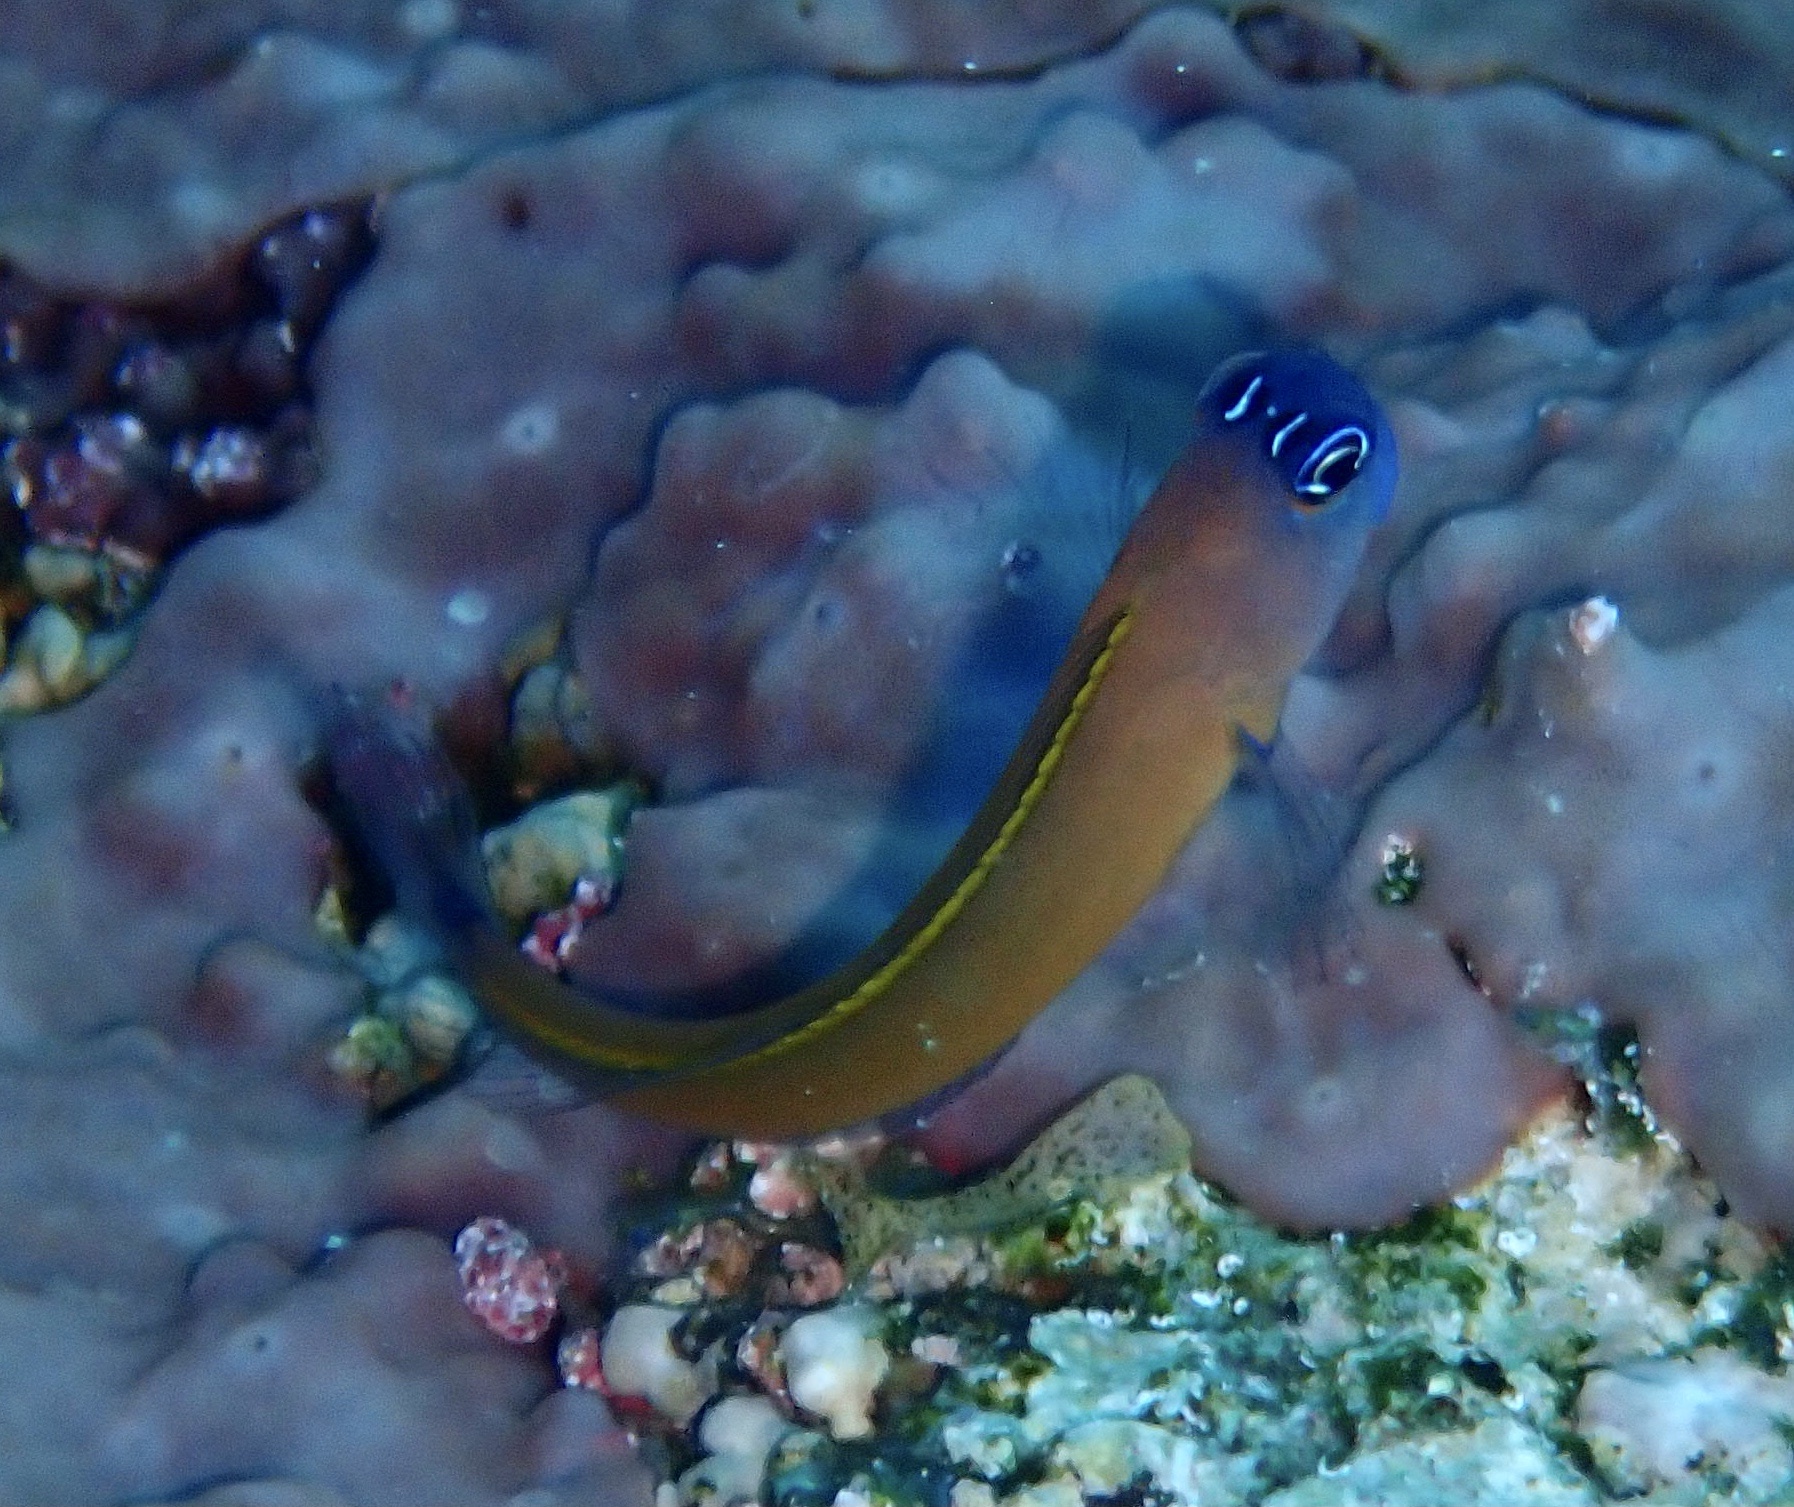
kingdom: Animalia
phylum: Chordata
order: Perciformes
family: Blenniidae
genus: Ecsenius
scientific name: Ecsenius aroni
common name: Aron's blenny
